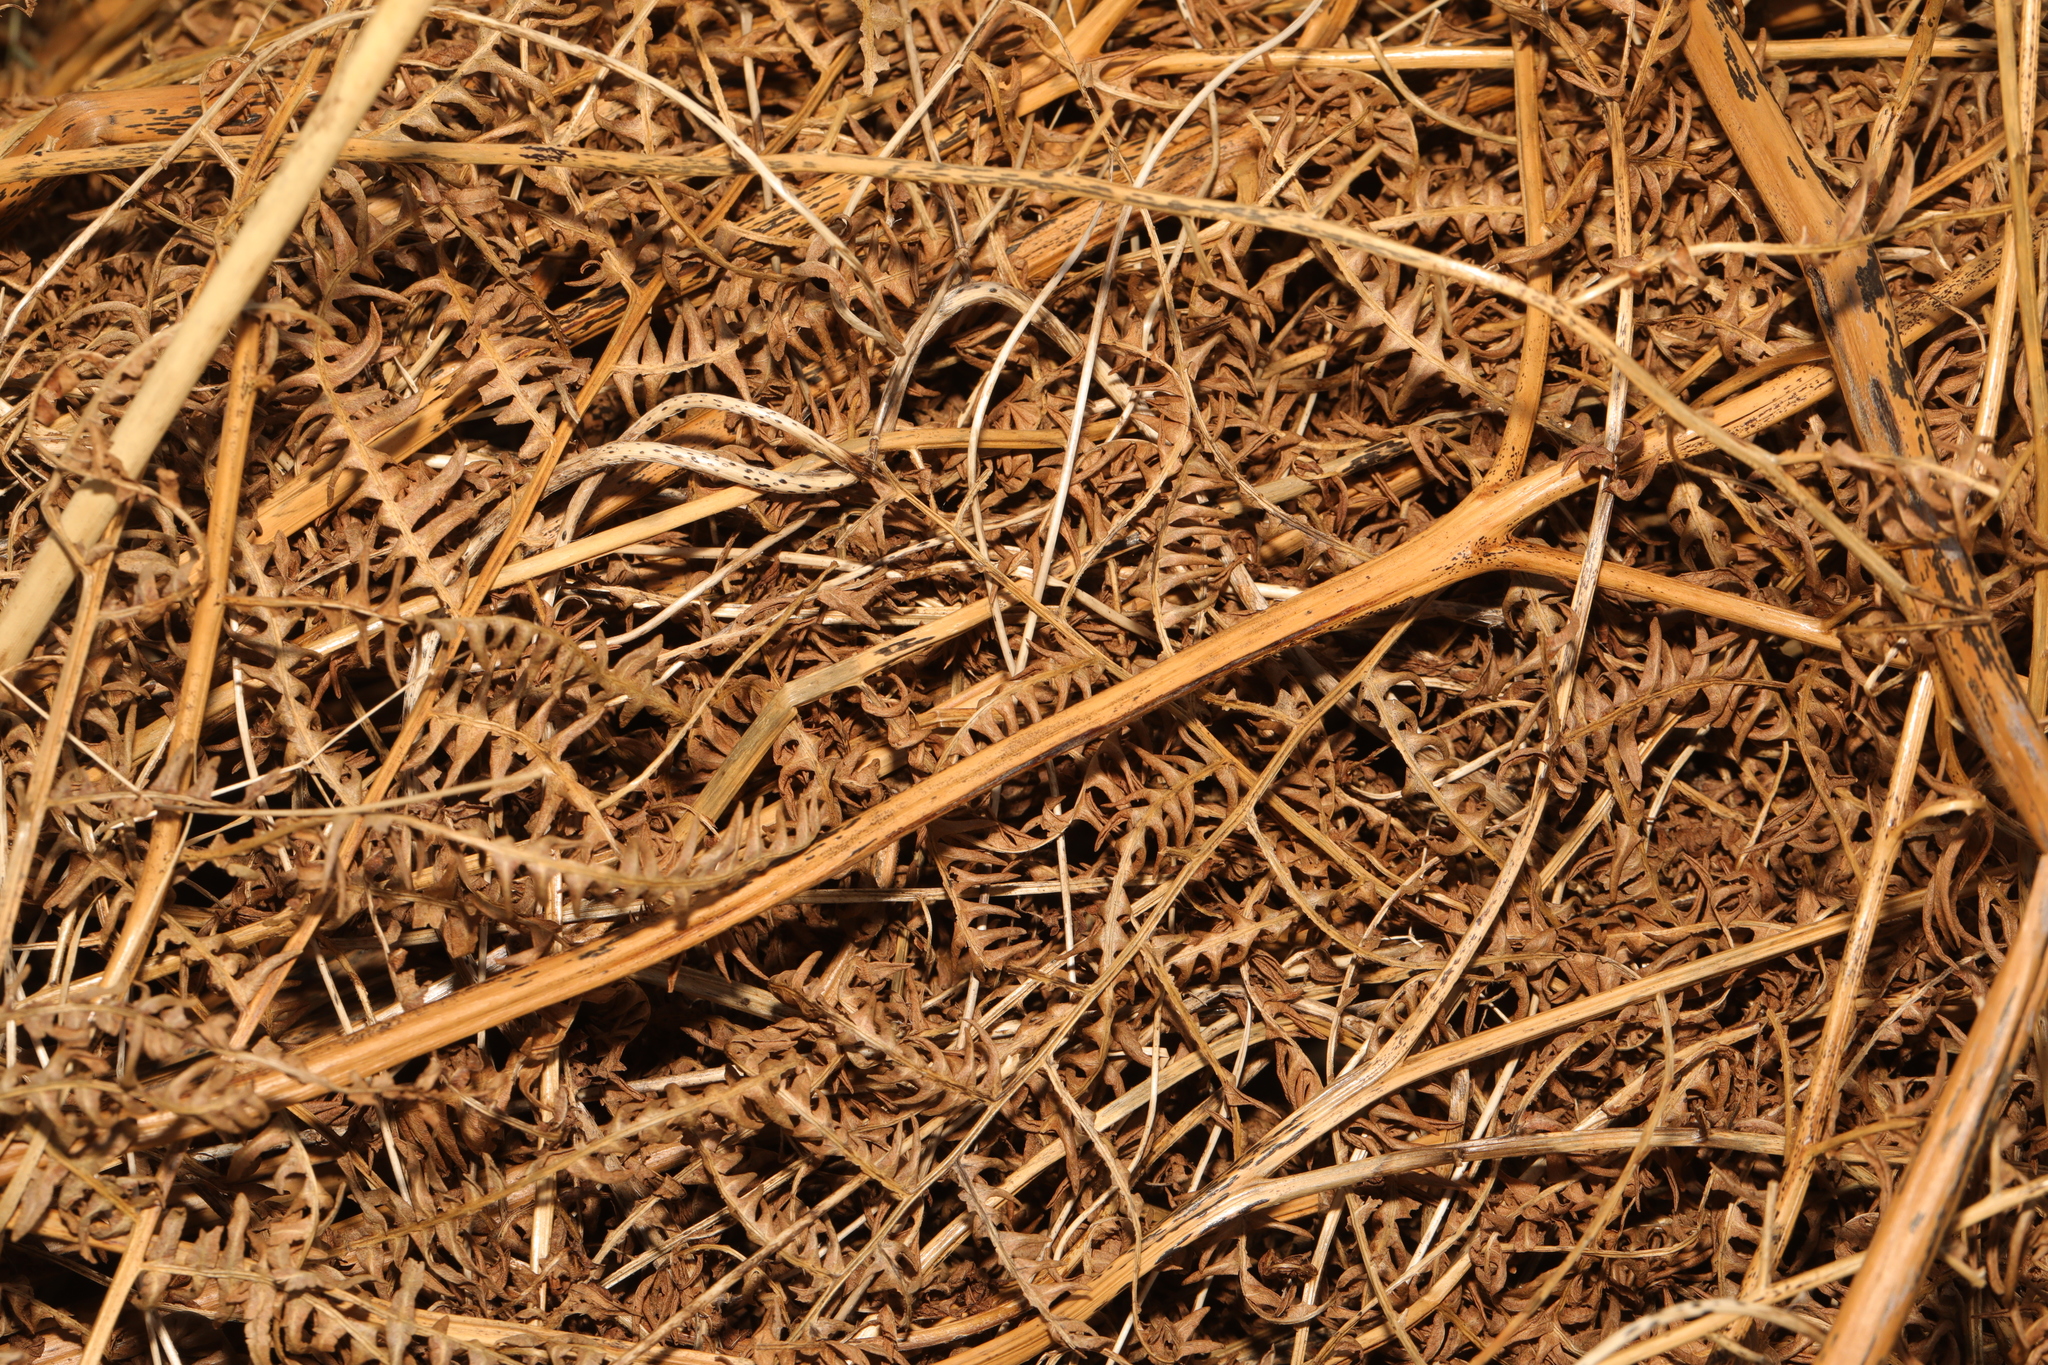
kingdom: Plantae
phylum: Tracheophyta
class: Polypodiopsida
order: Polypodiales
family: Dennstaedtiaceae
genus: Pteridium
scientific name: Pteridium aquilinum
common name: Bracken
